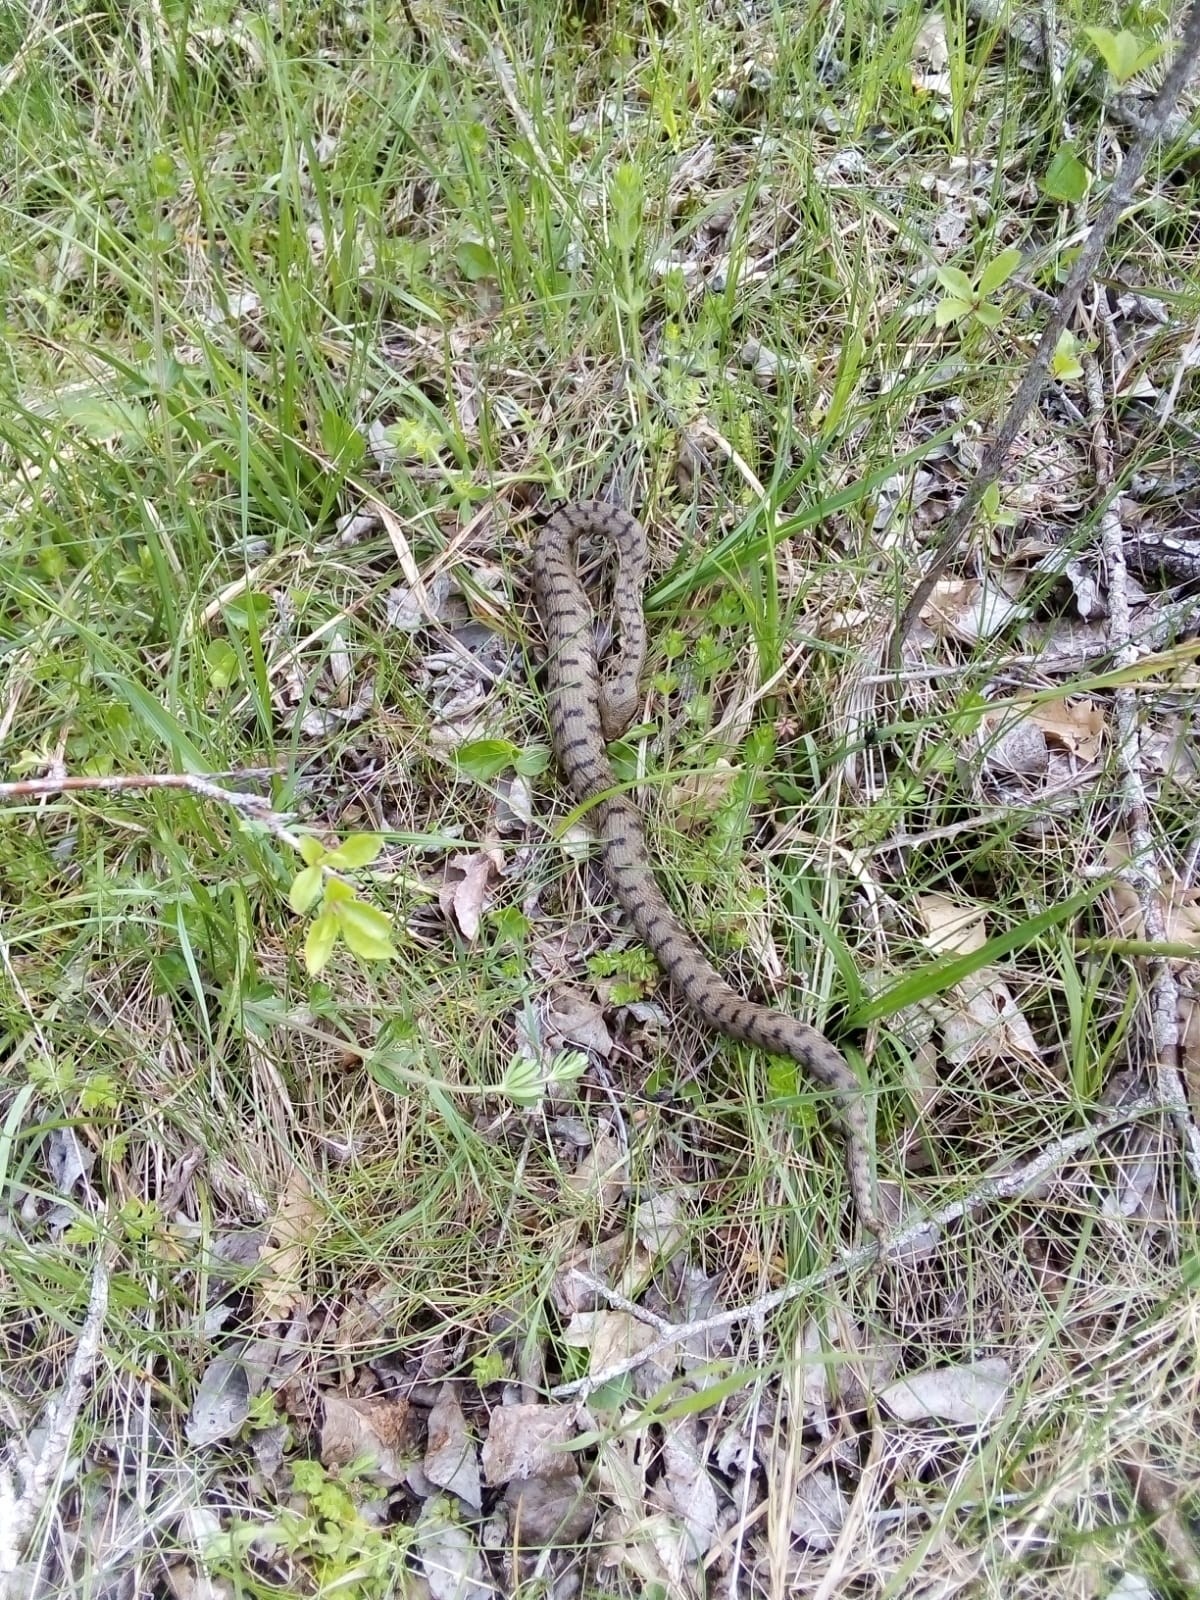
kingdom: Animalia
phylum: Chordata
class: Squamata
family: Viperidae
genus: Vipera
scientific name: Vipera aspis
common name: Asp viper
